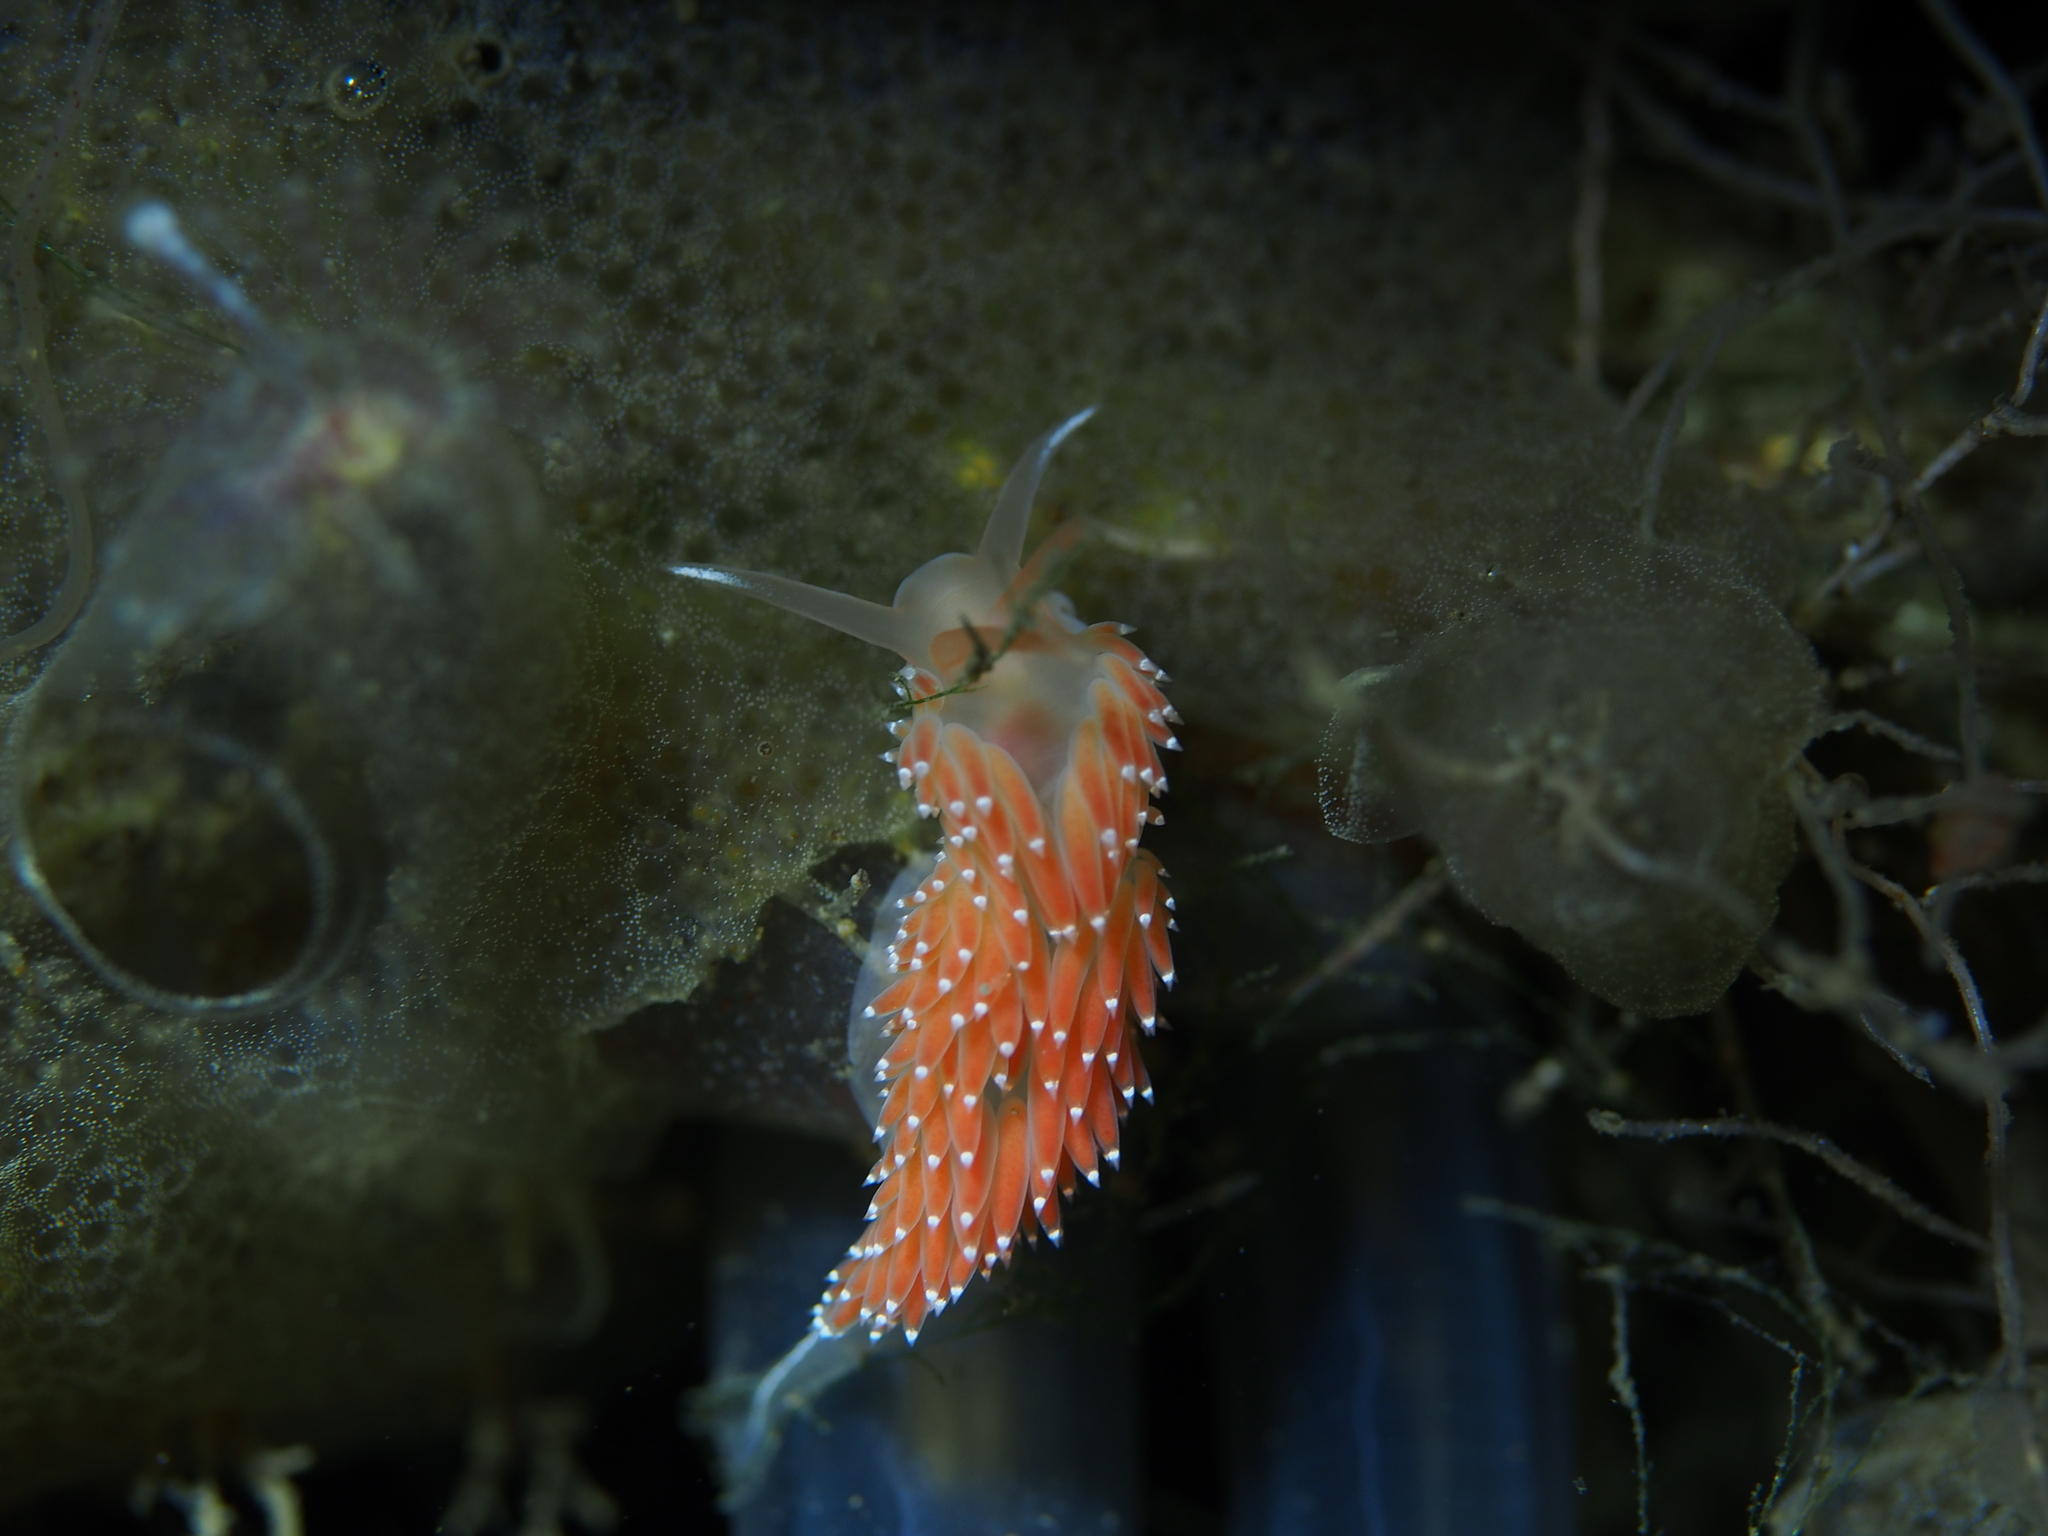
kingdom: Animalia
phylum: Mollusca
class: Gastropoda
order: Nudibranchia
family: Coryphellidae
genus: Coryphella
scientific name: Coryphella verrucosa
